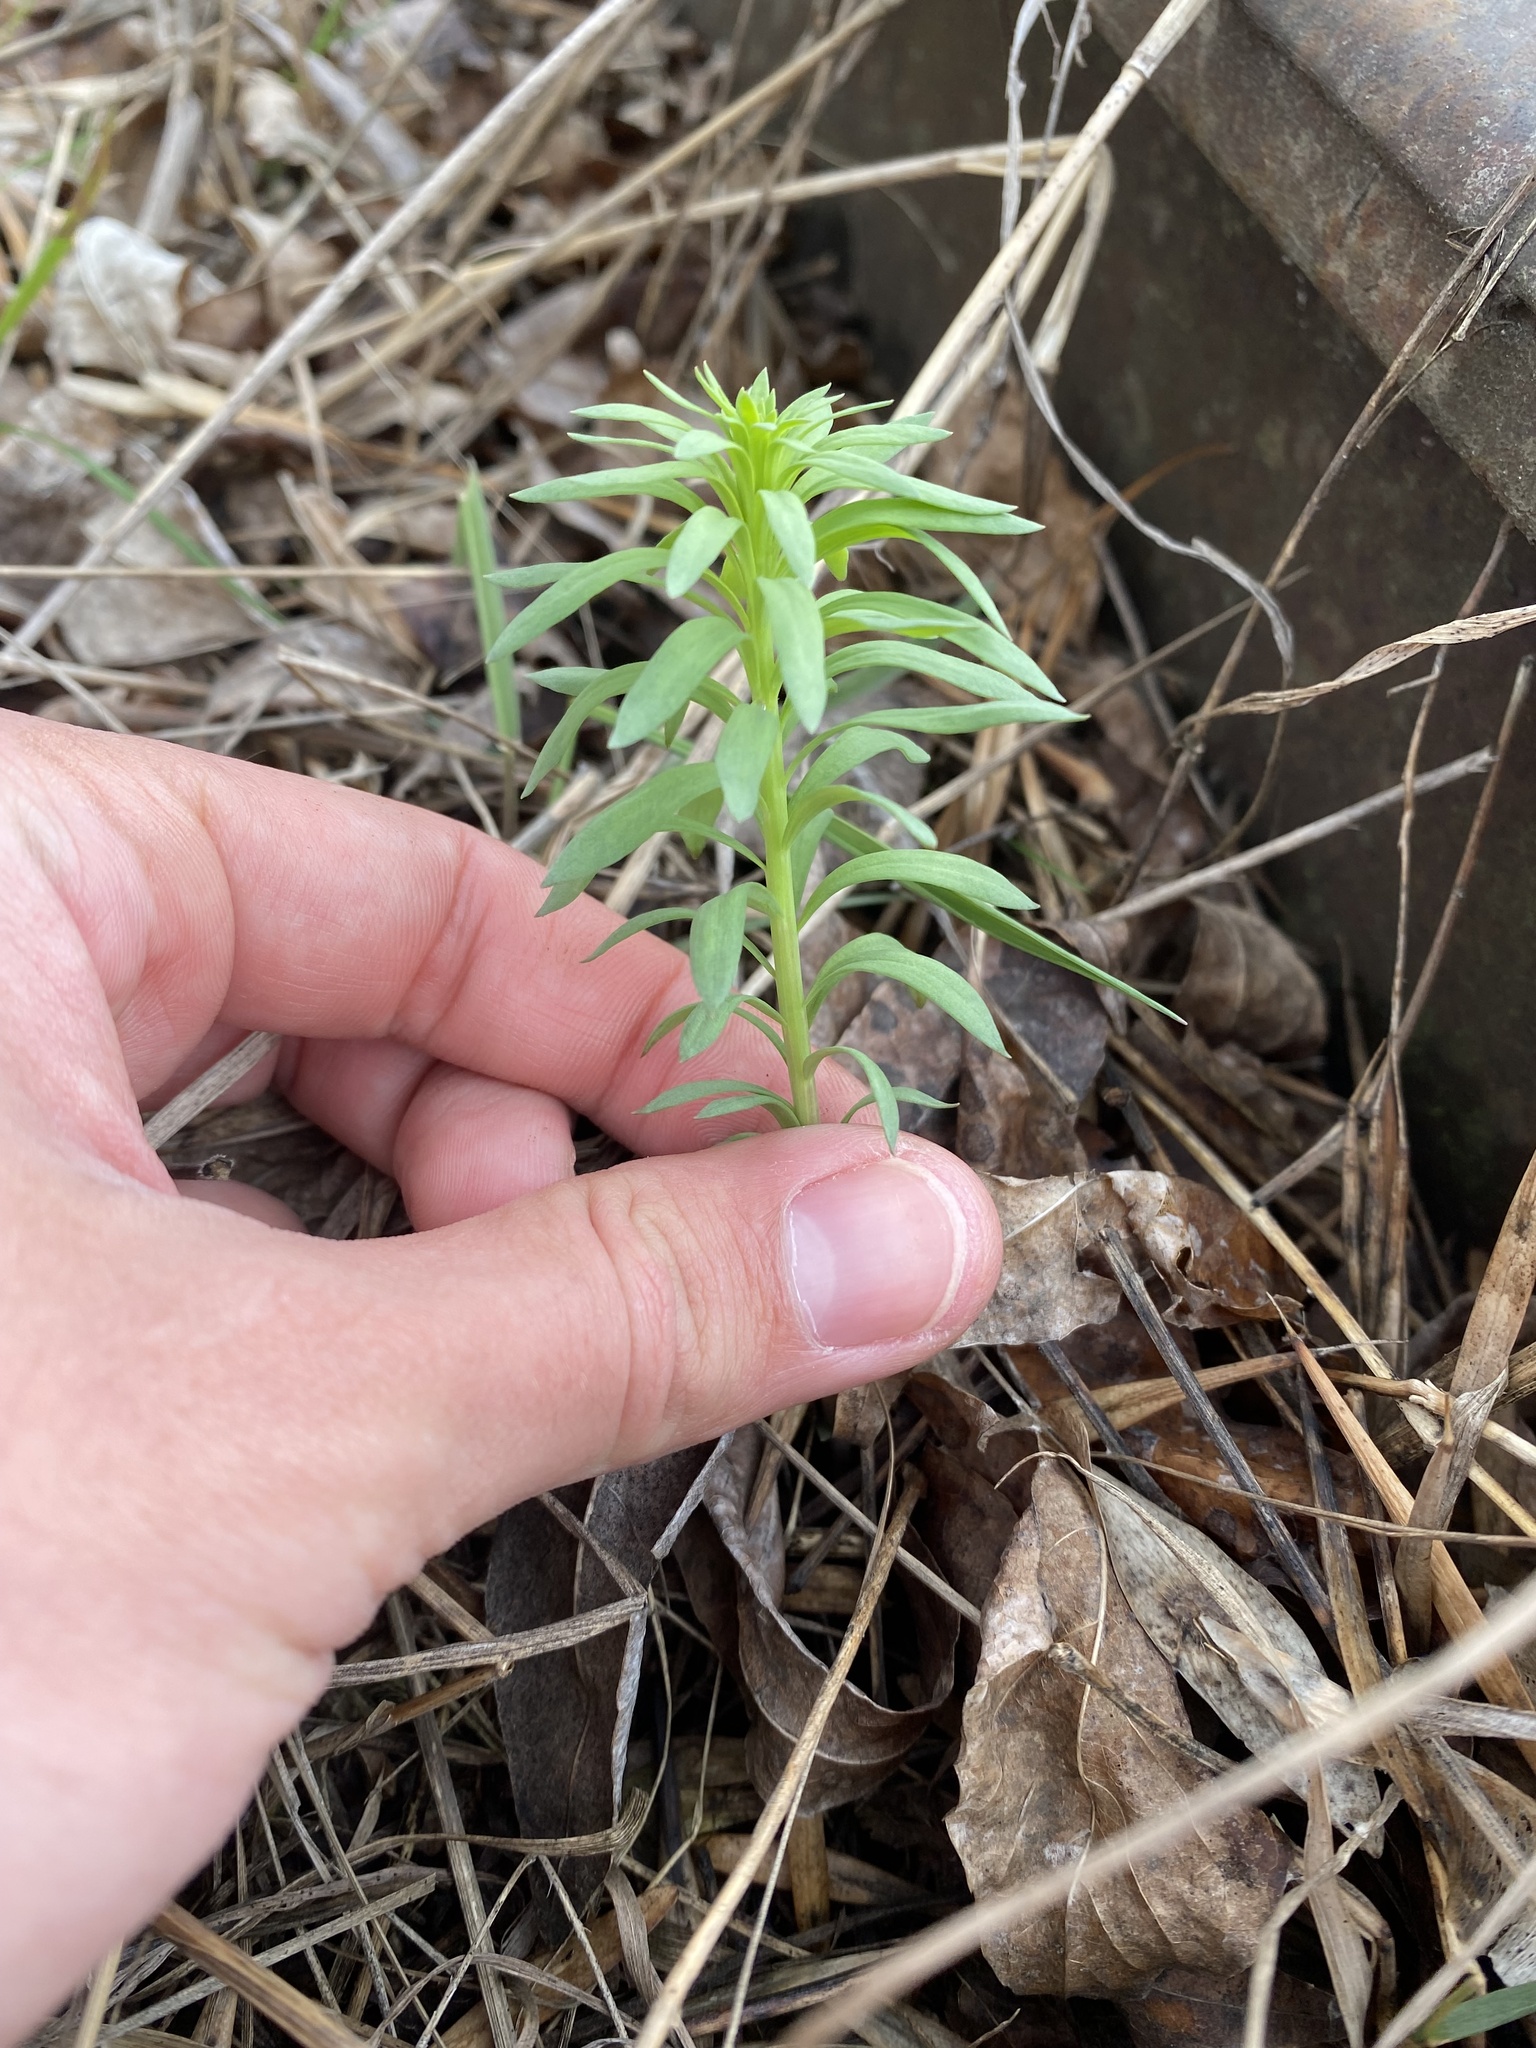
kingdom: Plantae
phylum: Tracheophyta
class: Magnoliopsida
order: Lamiales
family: Plantaginaceae
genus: Linaria
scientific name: Linaria vulgaris
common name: Butter and eggs
